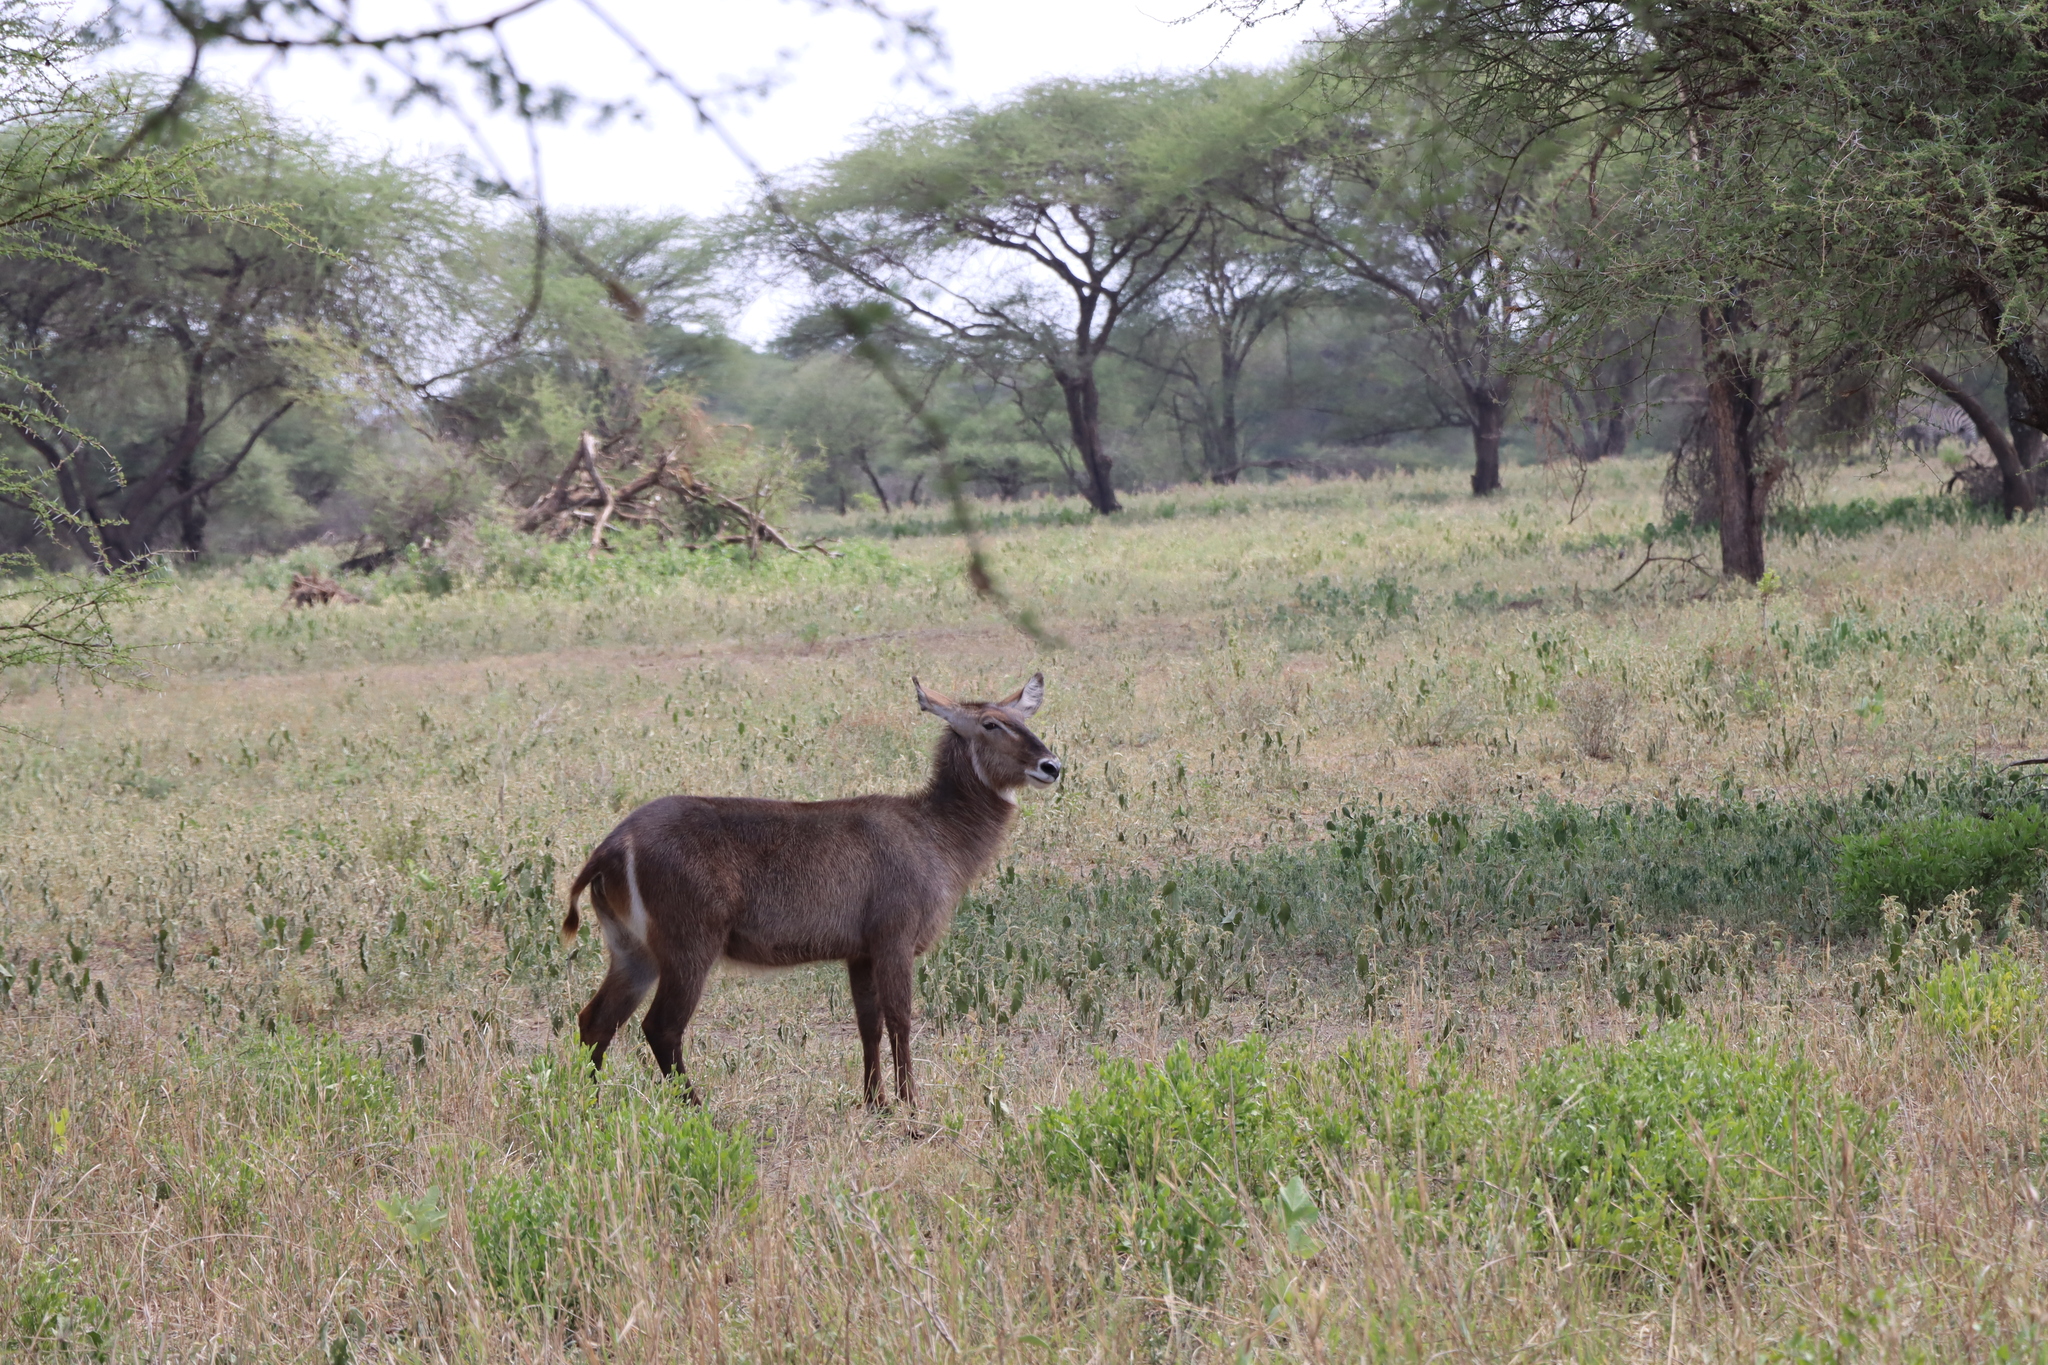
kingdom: Animalia
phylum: Chordata
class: Mammalia
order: Artiodactyla
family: Bovidae
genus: Kobus
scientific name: Kobus ellipsiprymnus
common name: Waterbuck
